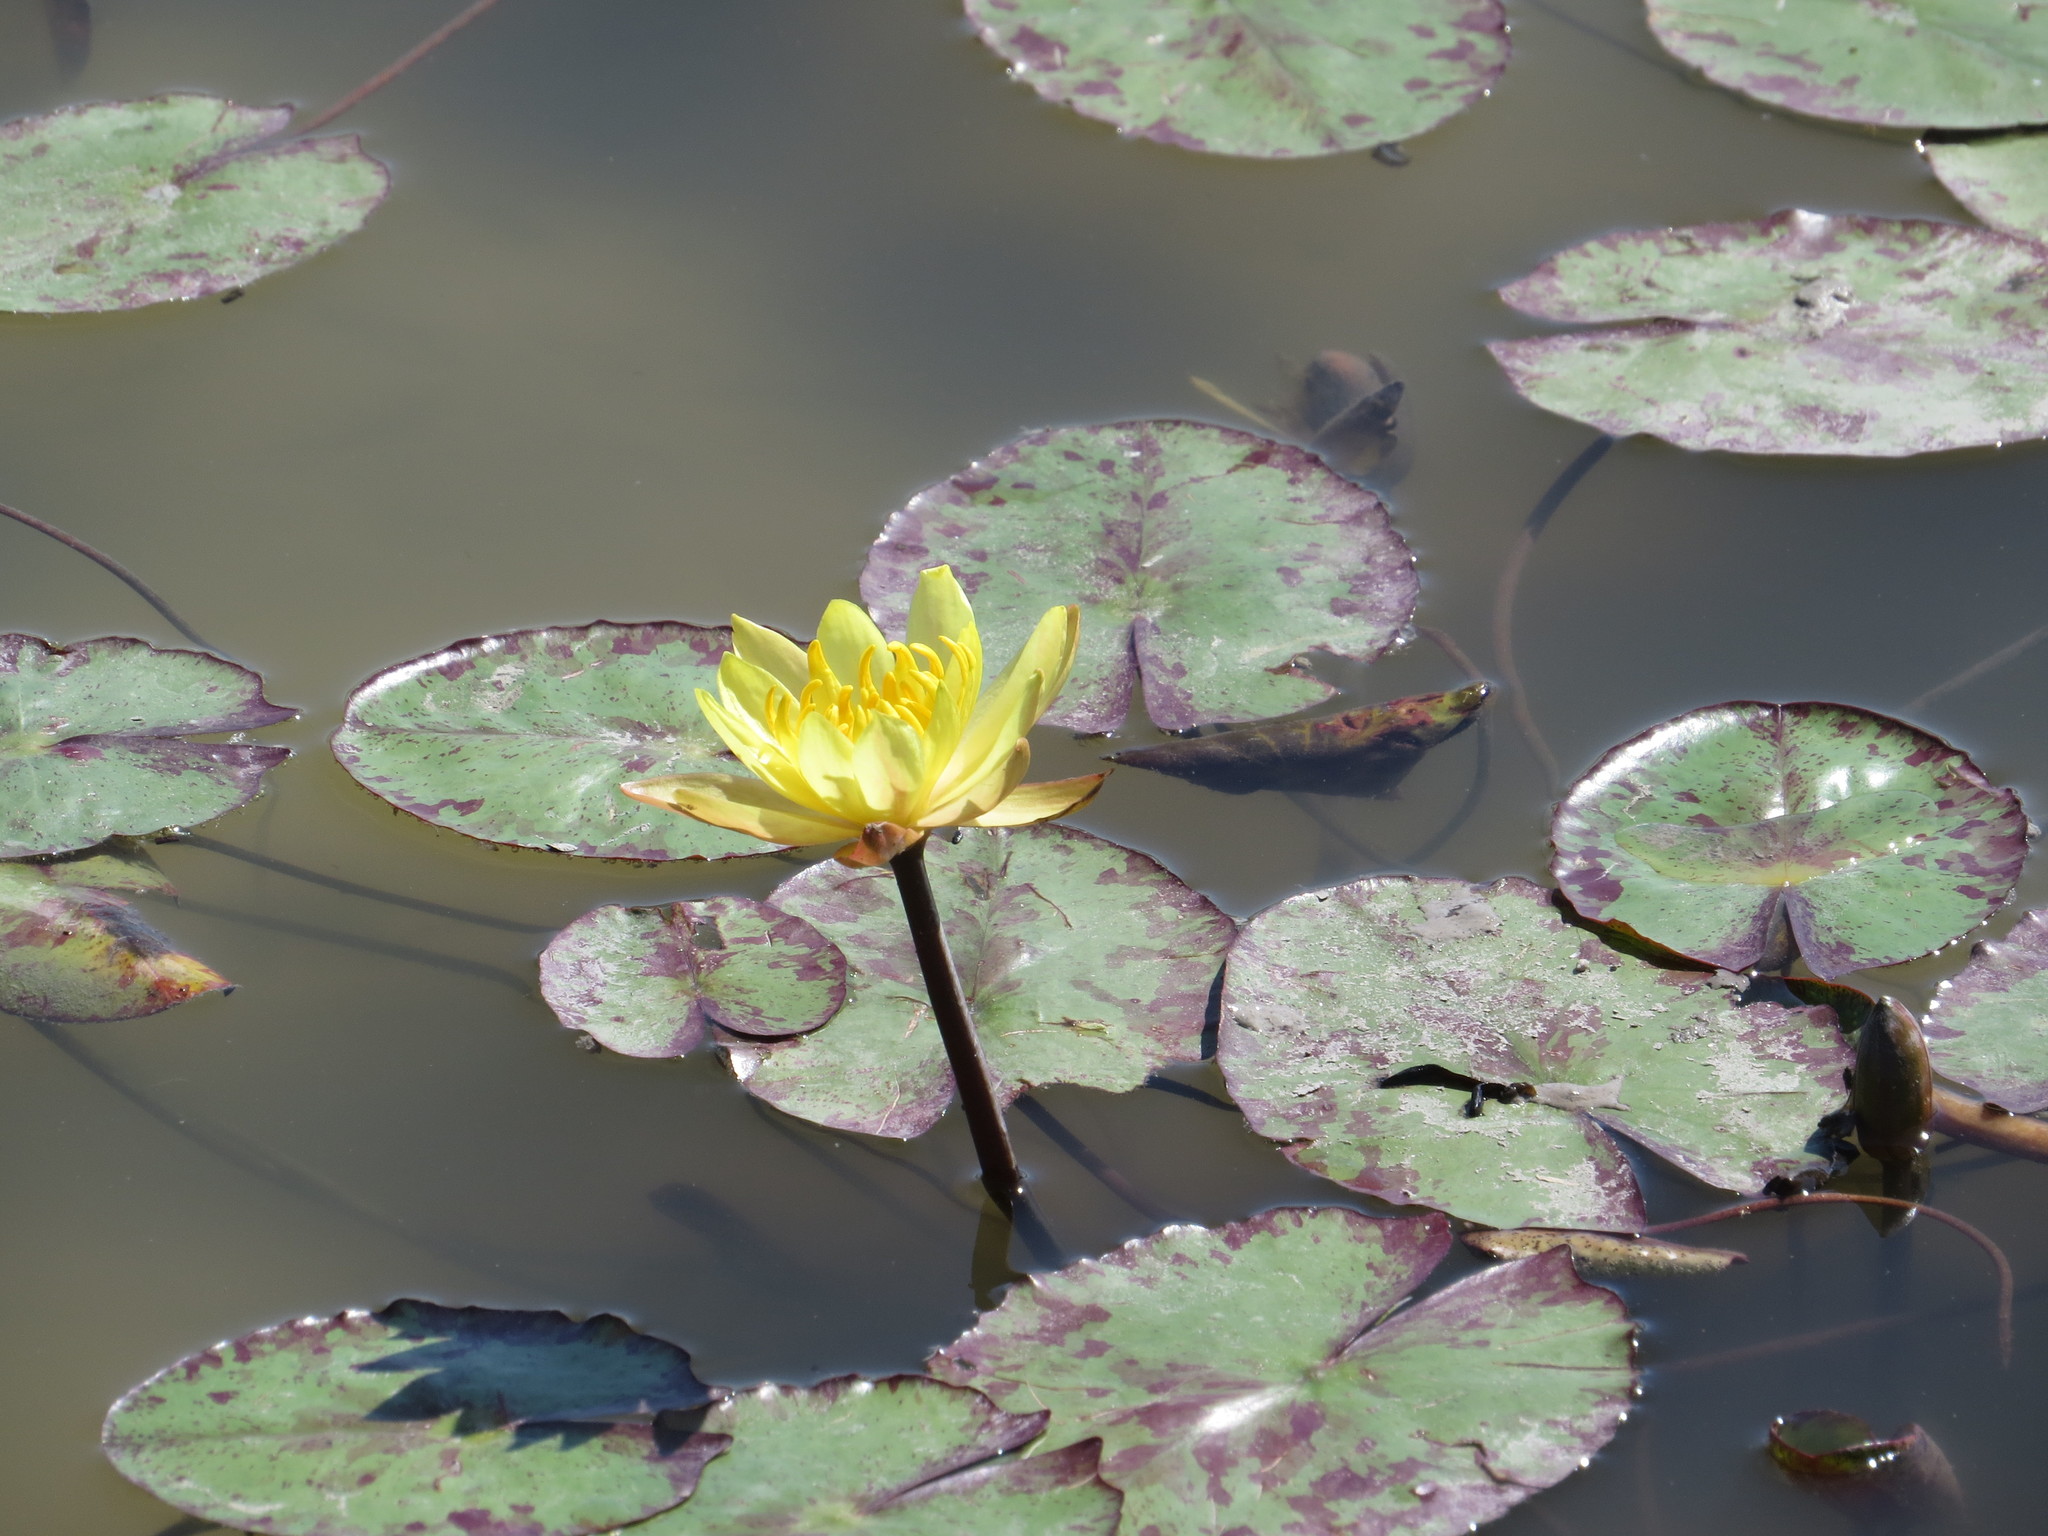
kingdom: Plantae
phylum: Tracheophyta
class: Magnoliopsida
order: Nymphaeales
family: Nymphaeaceae
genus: Nymphaea
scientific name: Nymphaea mexicana
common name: Banana water-lily
